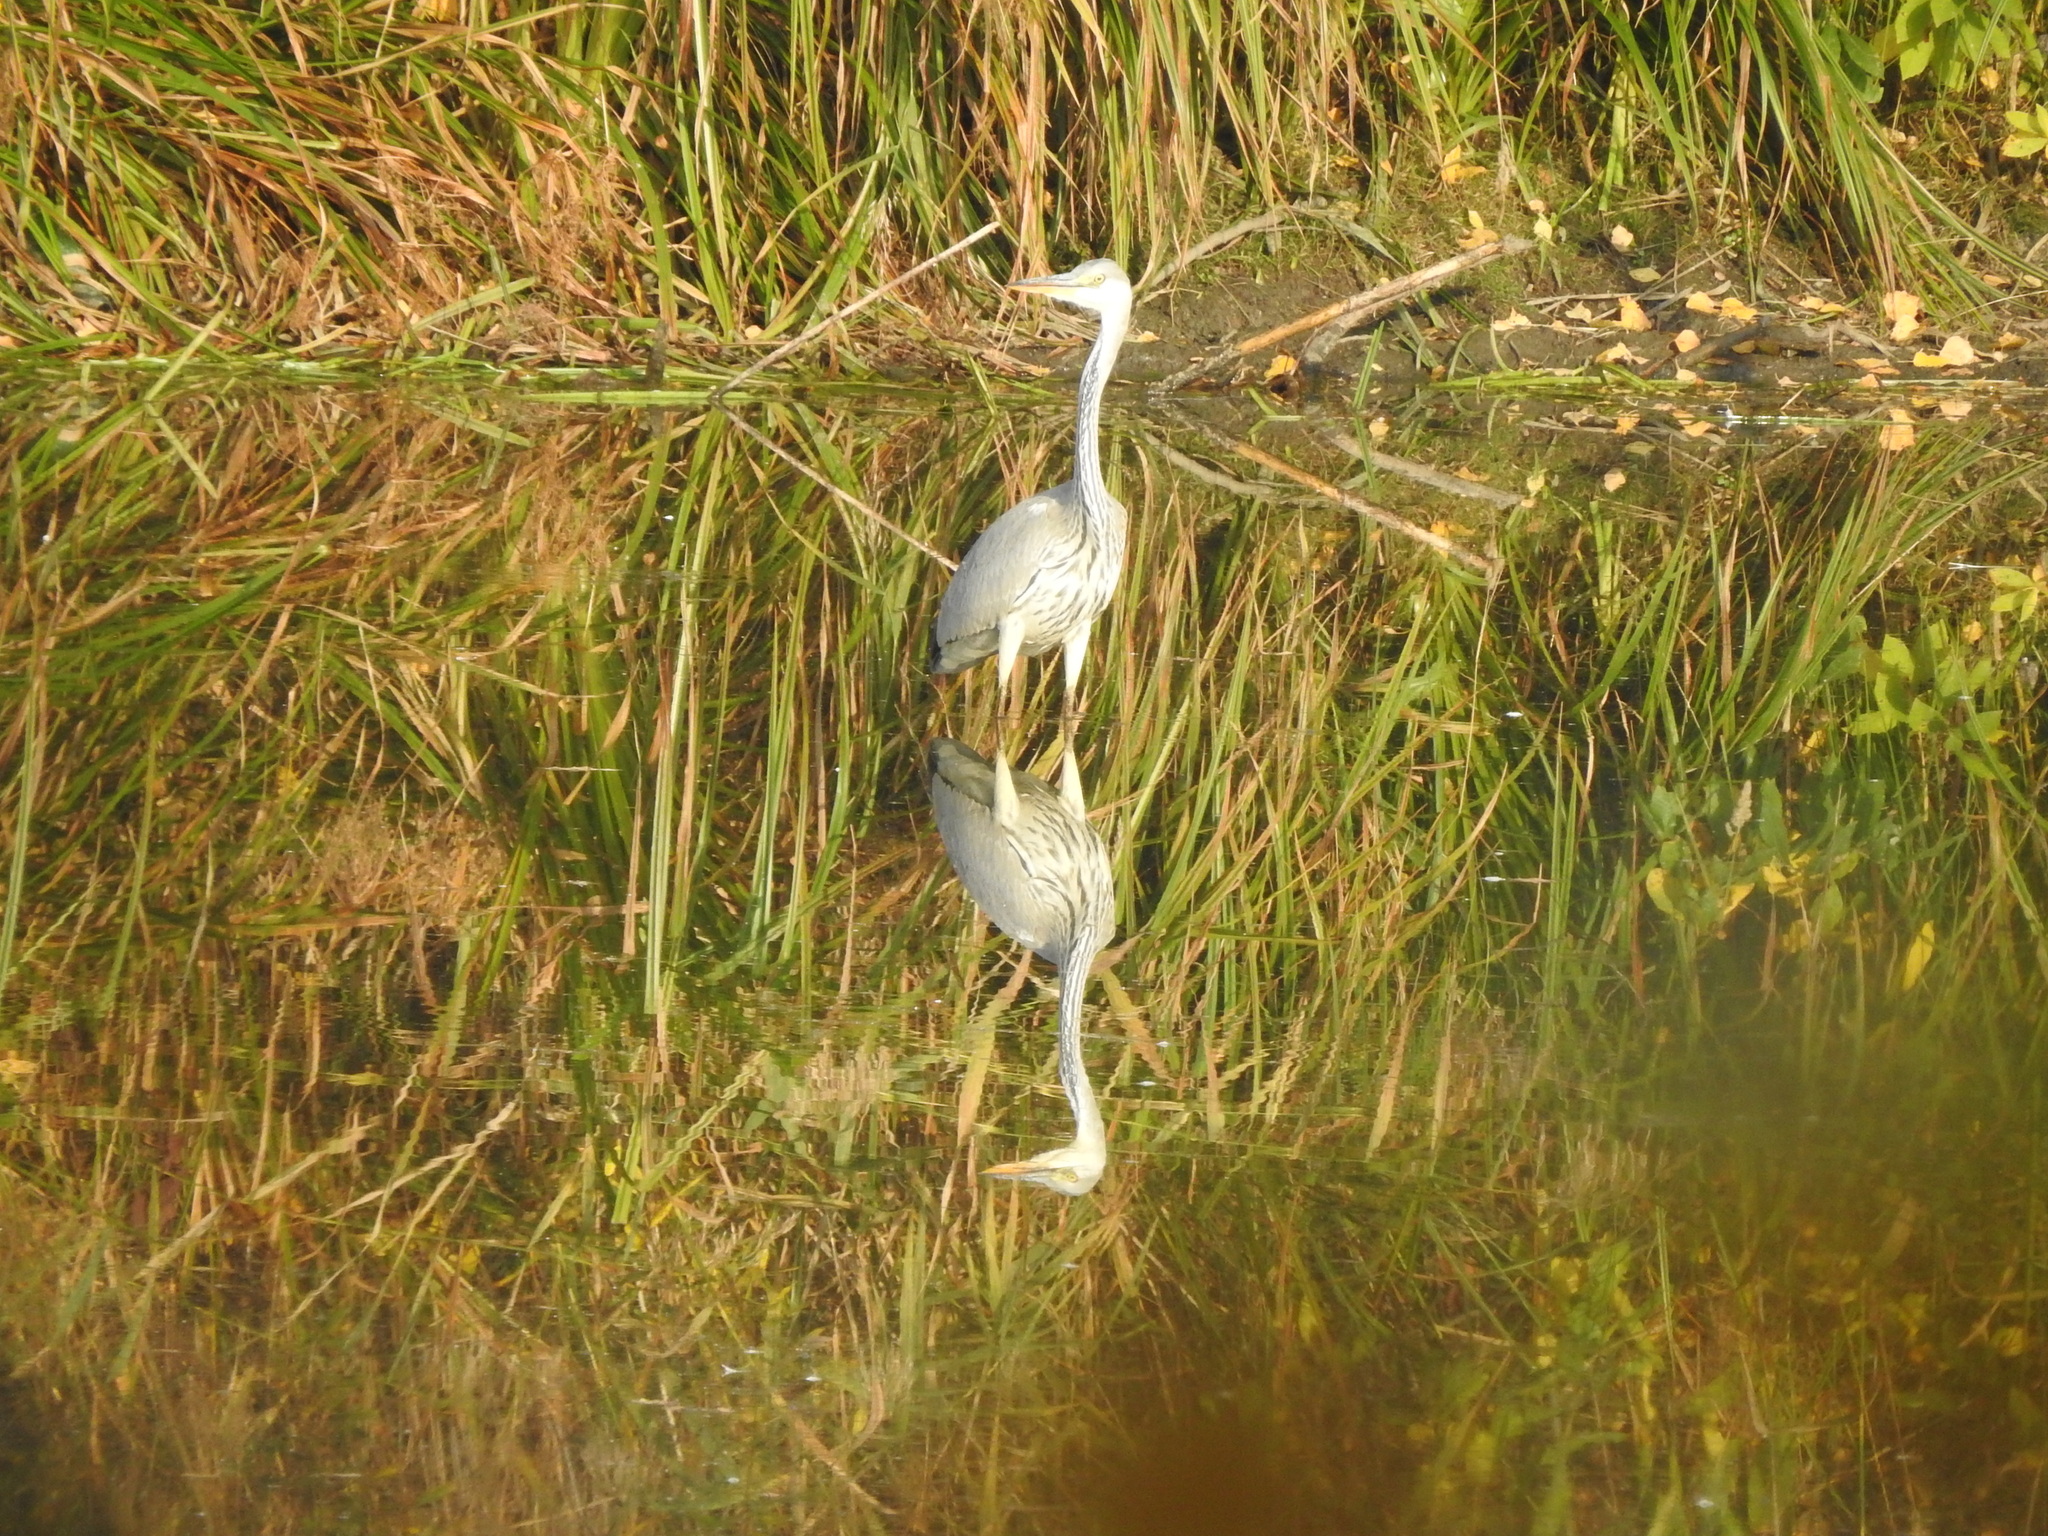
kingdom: Animalia
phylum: Chordata
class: Aves
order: Pelecaniformes
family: Ardeidae
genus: Ardea
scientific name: Ardea cinerea
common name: Grey heron
